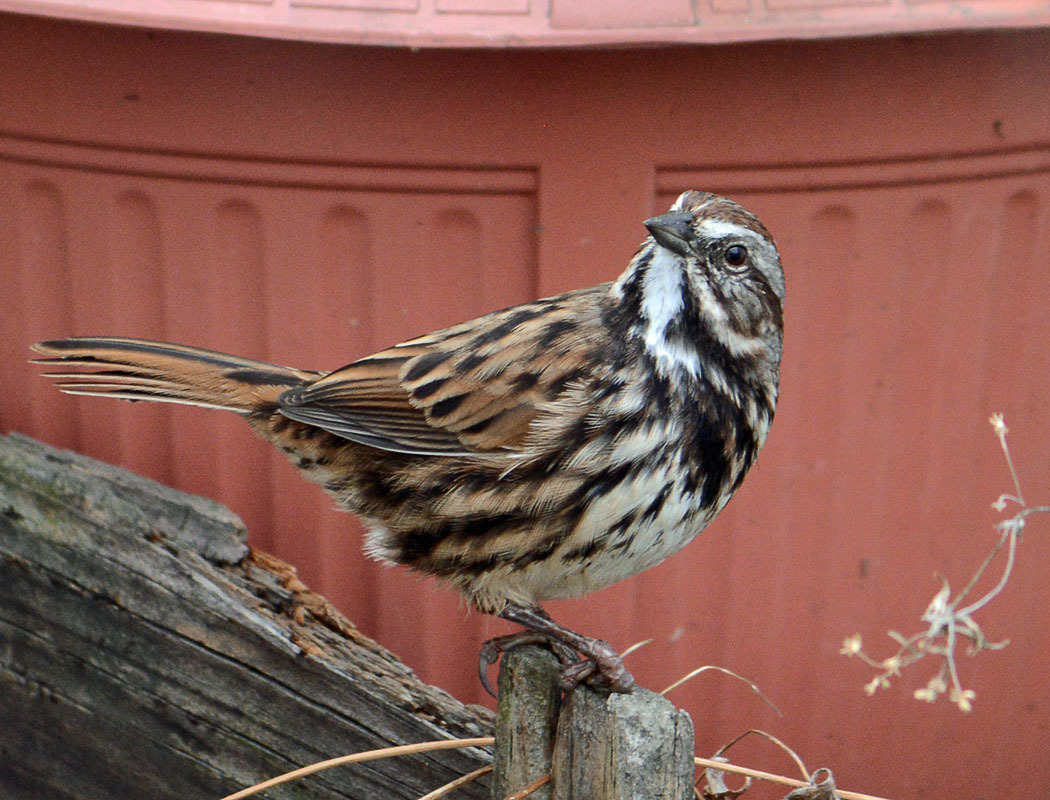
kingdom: Animalia
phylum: Chordata
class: Aves
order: Passeriformes
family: Passerellidae
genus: Melospiza
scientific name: Melospiza melodia
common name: Song sparrow
